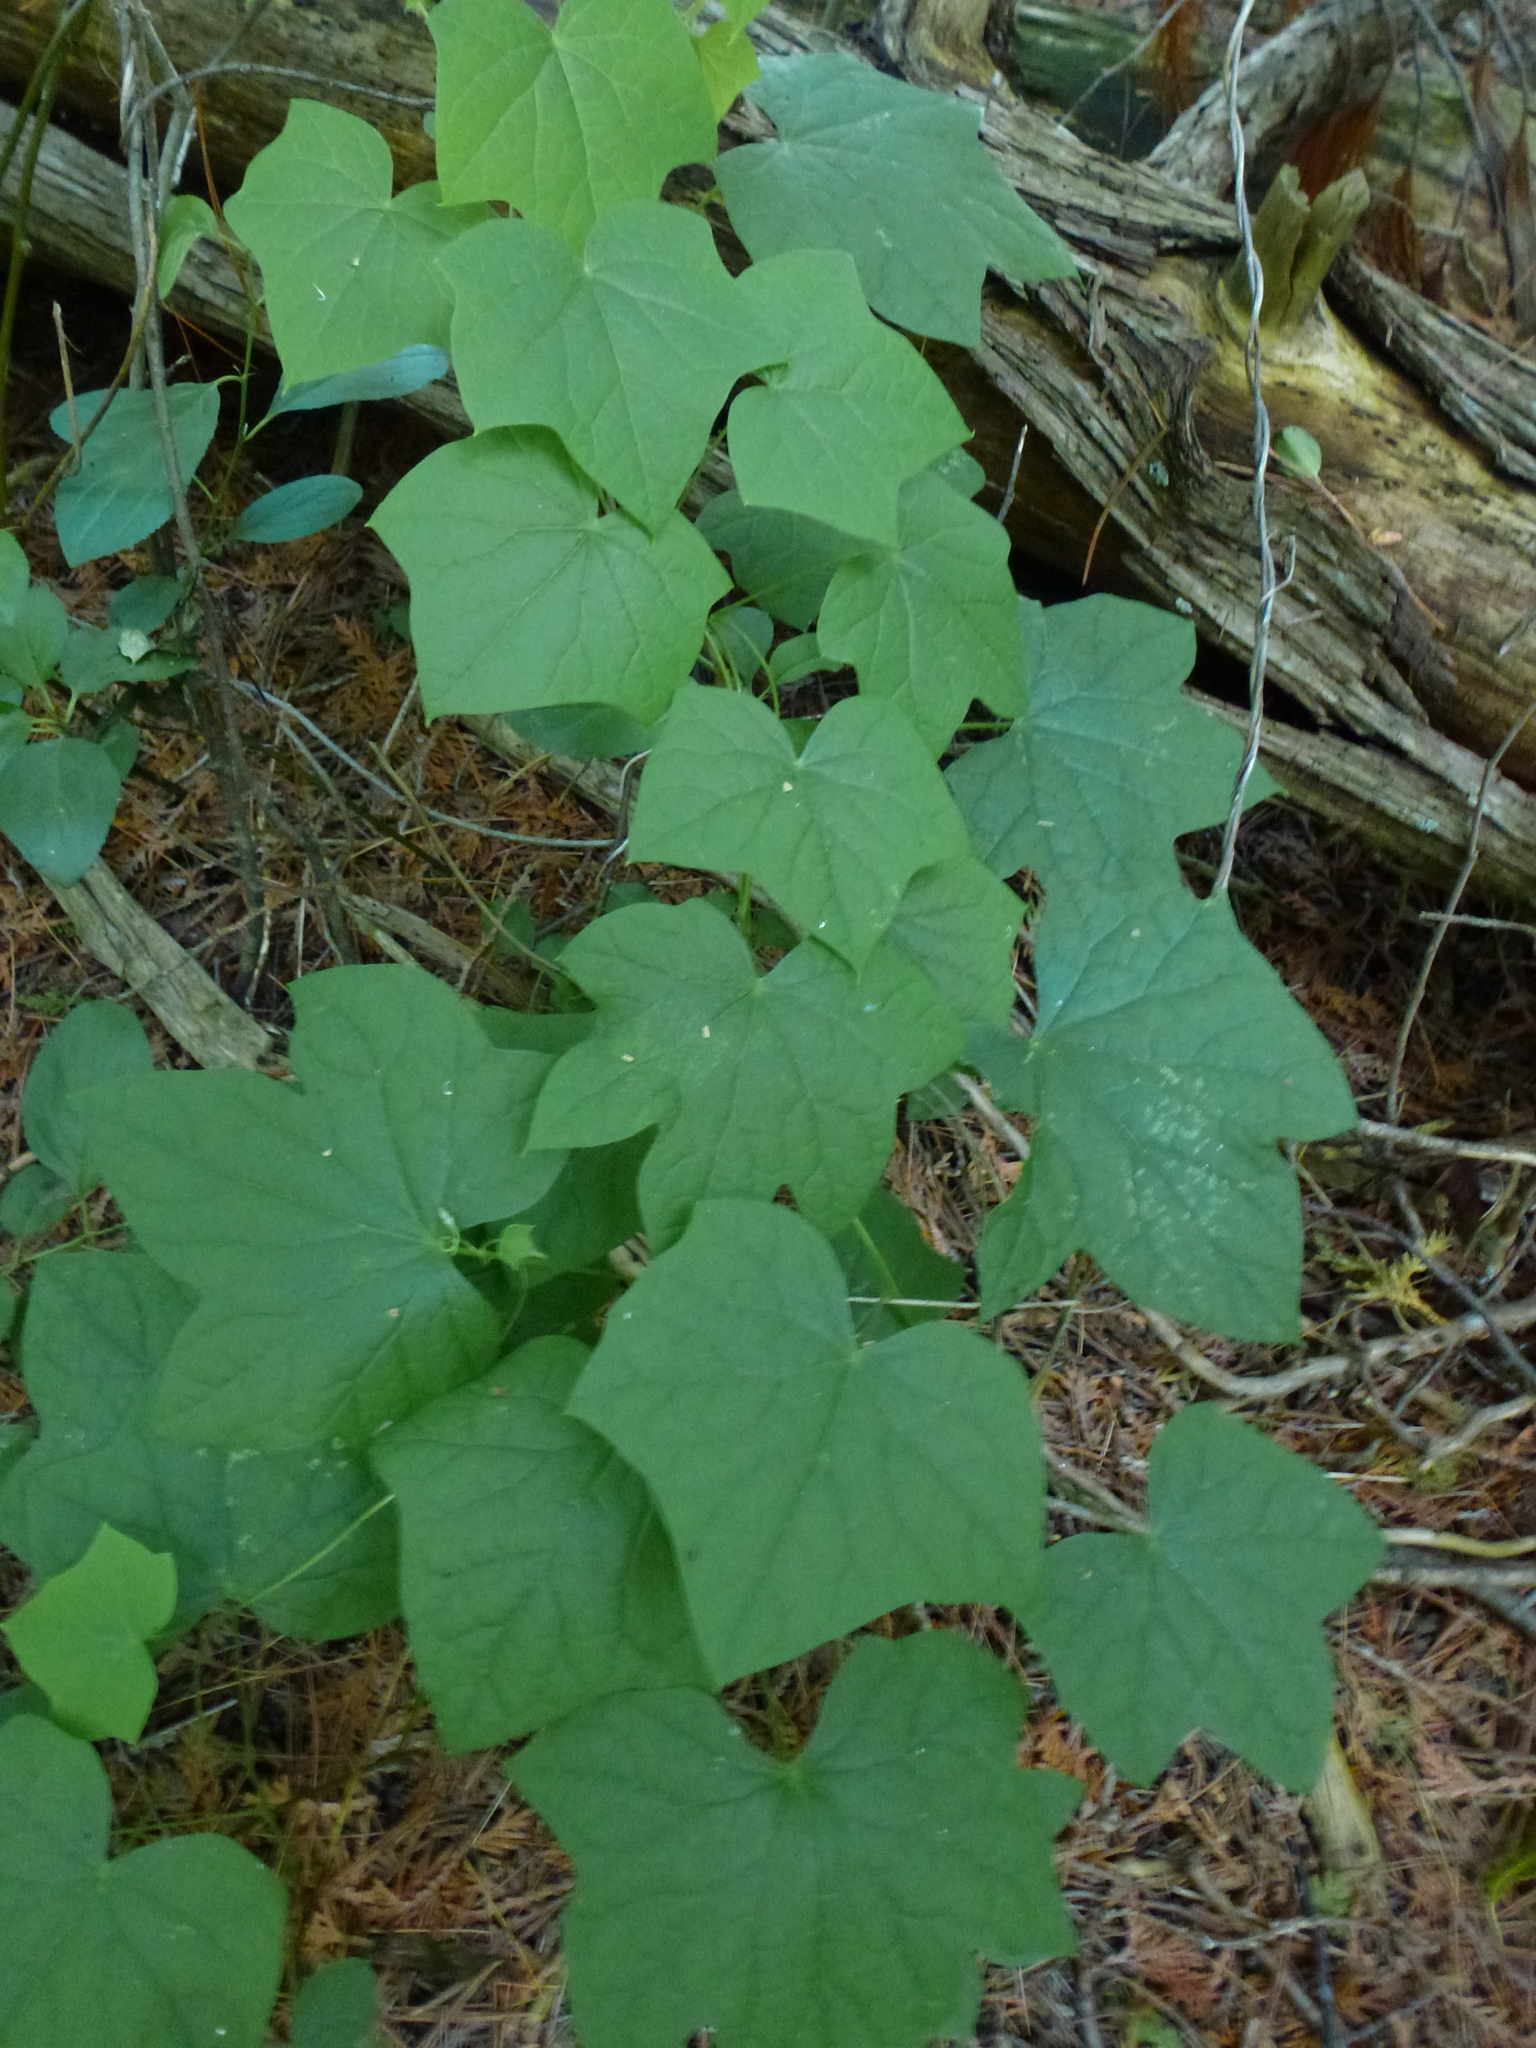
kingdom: Plantae
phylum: Tracheophyta
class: Magnoliopsida
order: Ranunculales
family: Menispermaceae
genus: Menispermum
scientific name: Menispermum canadense
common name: Moonseed
